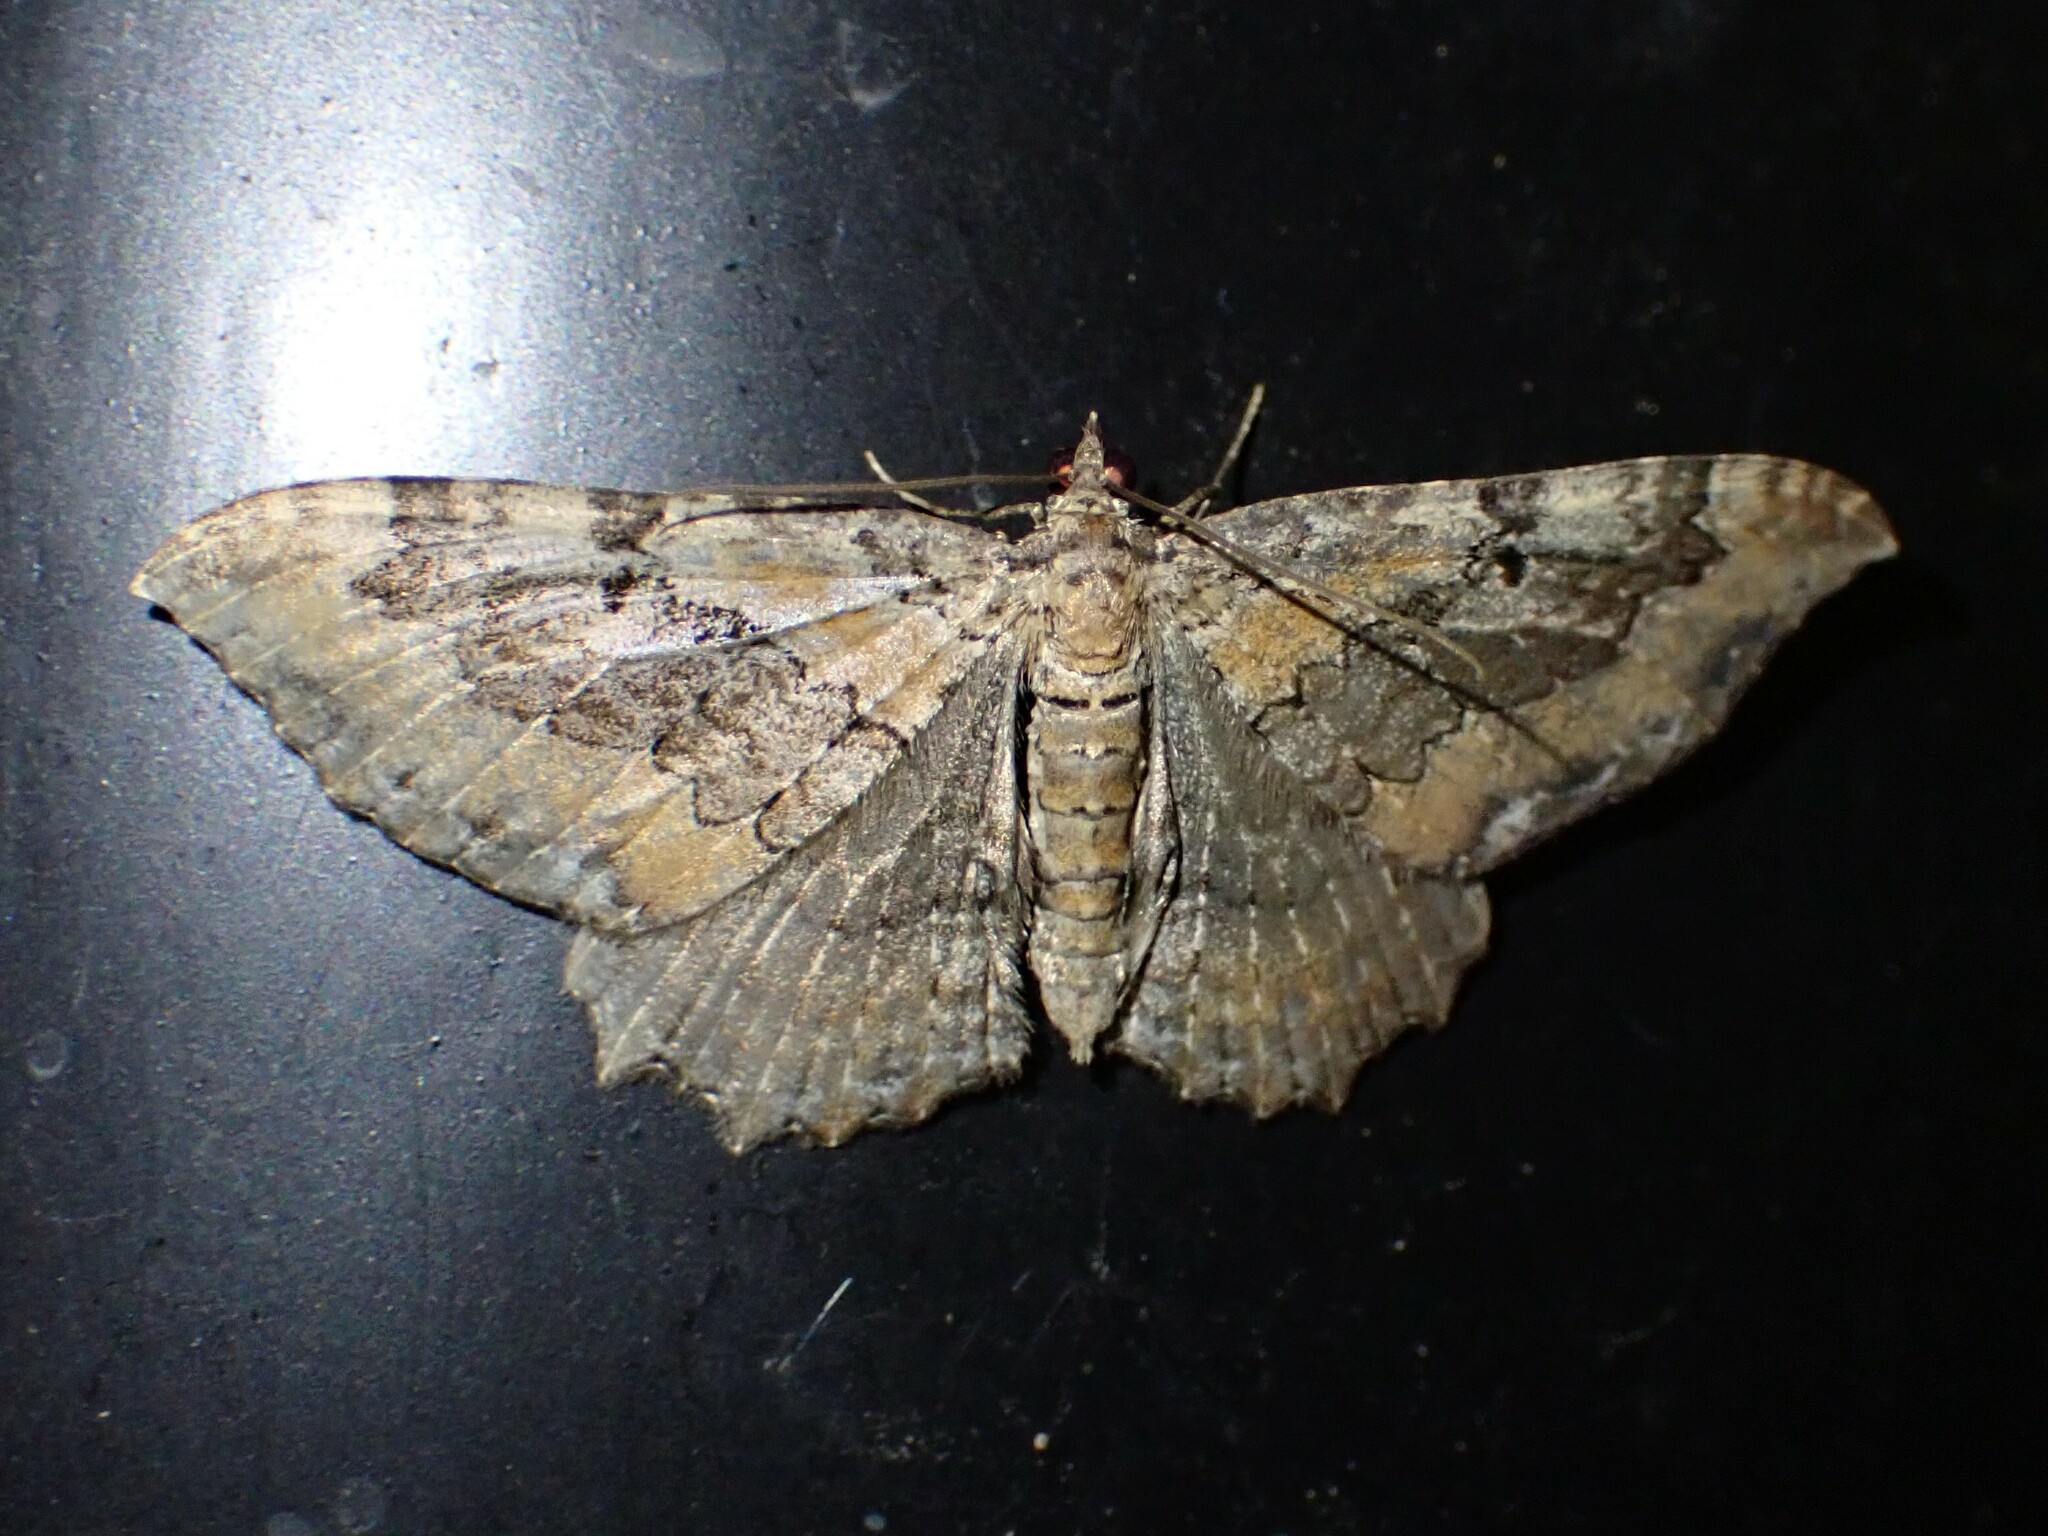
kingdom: Animalia
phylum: Arthropoda
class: Insecta
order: Lepidoptera
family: Geometridae
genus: Rheumaptera
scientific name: Rheumaptera
